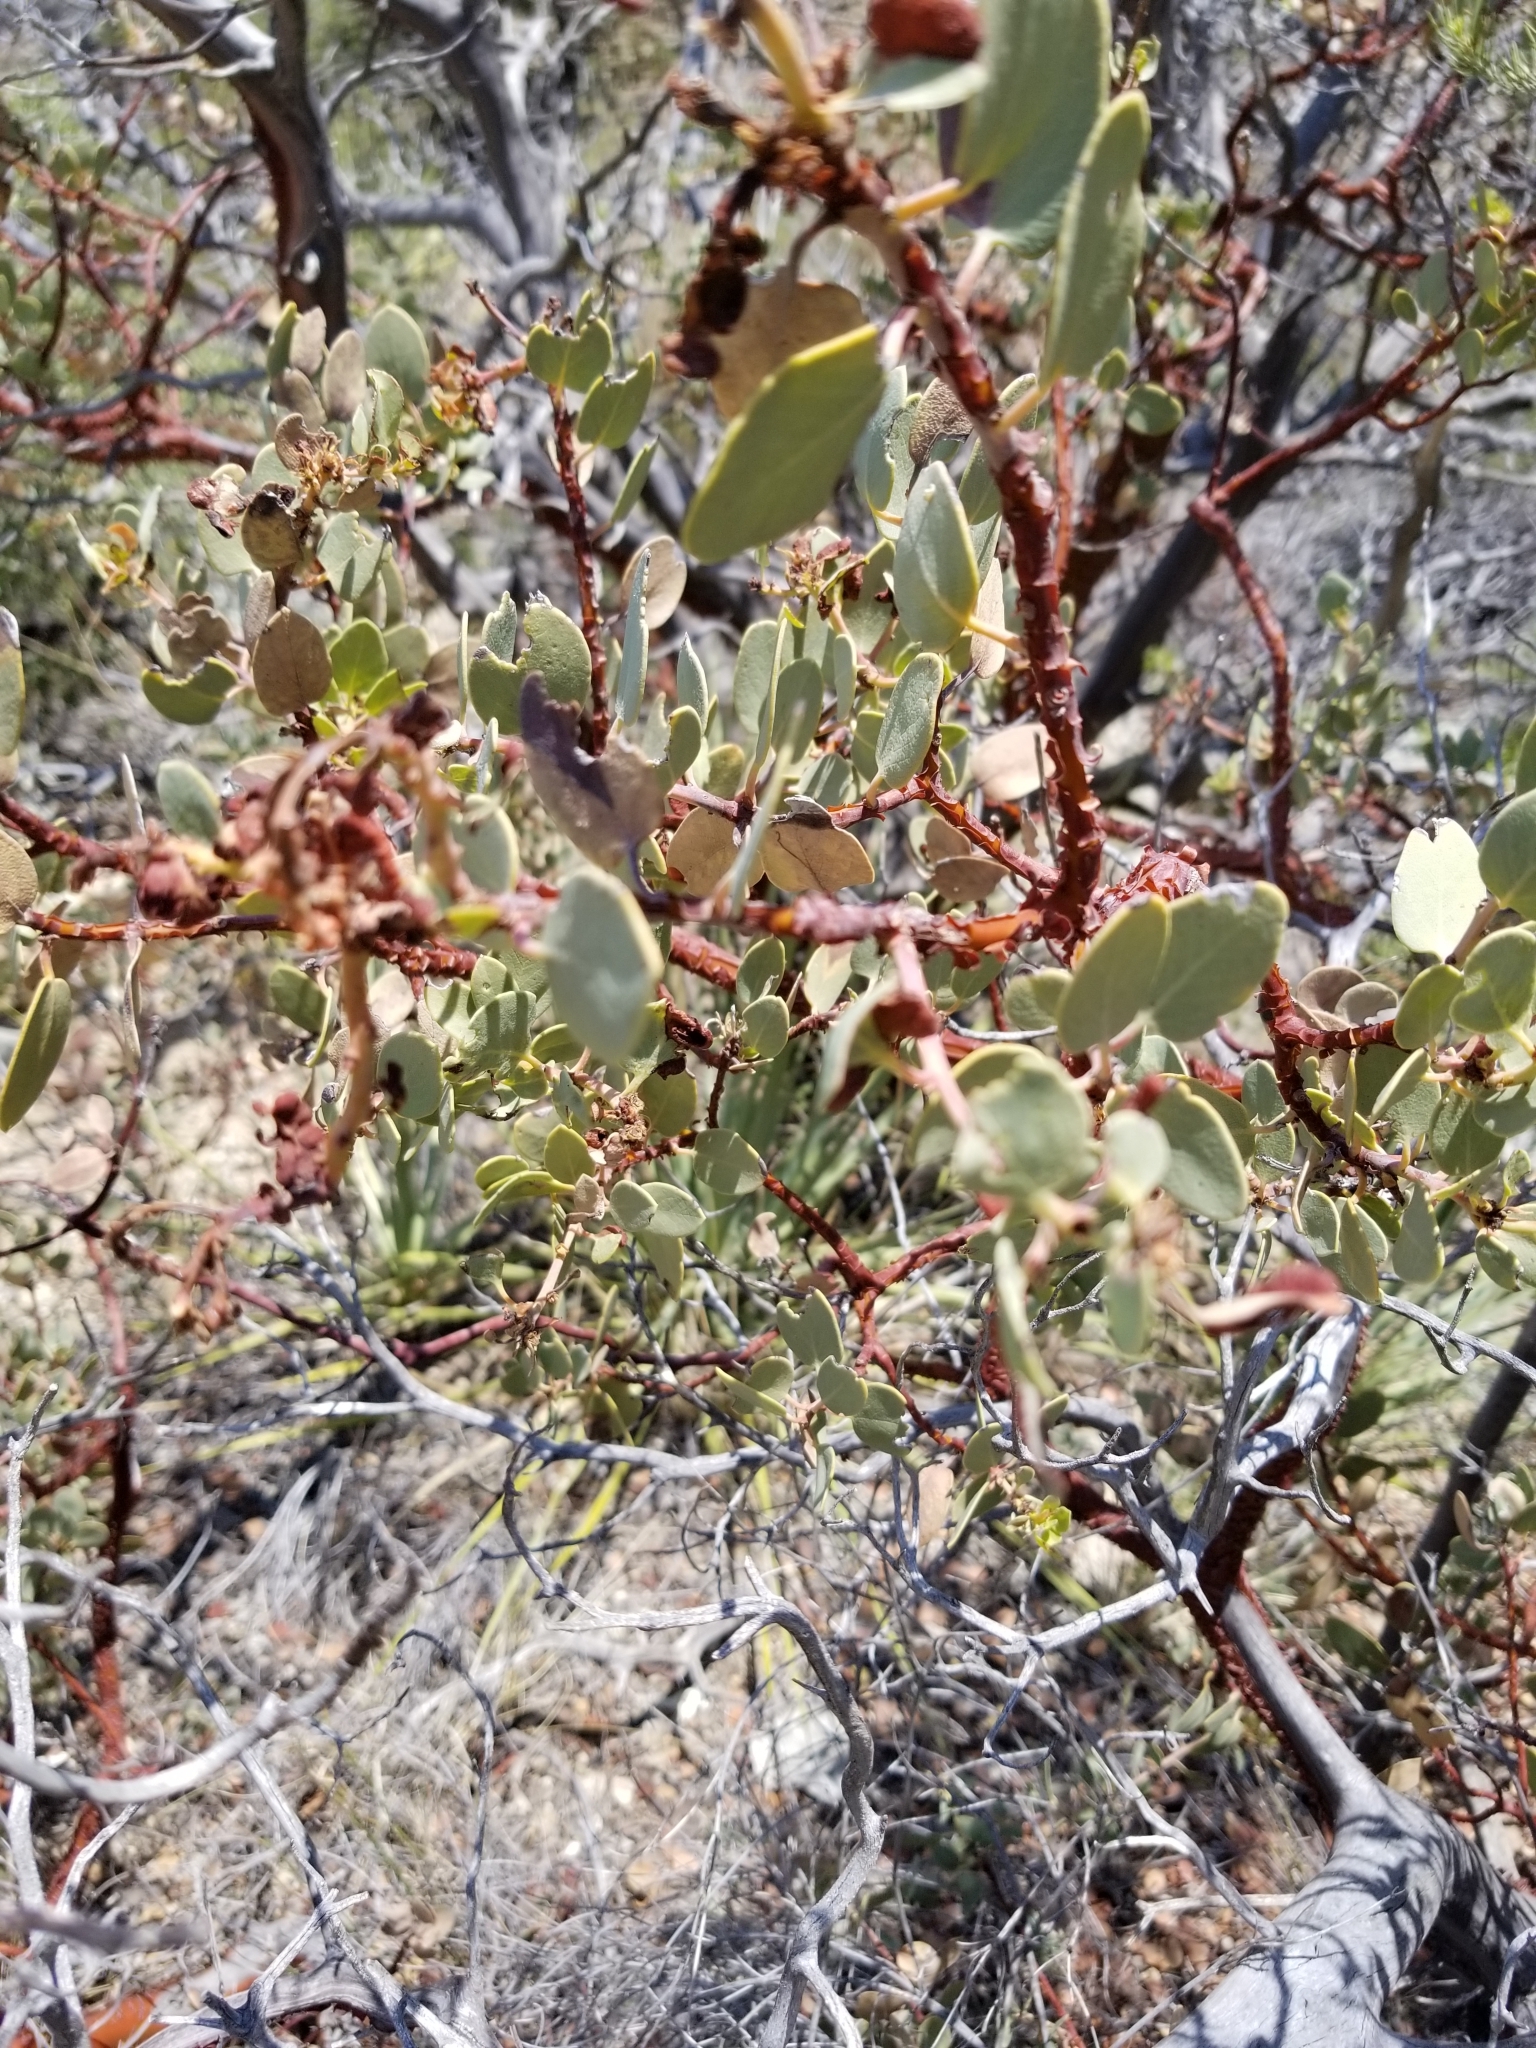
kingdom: Plantae
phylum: Tracheophyta
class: Magnoliopsida
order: Ericales
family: Ericaceae
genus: Arctostaphylos
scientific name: Arctostaphylos glauca
